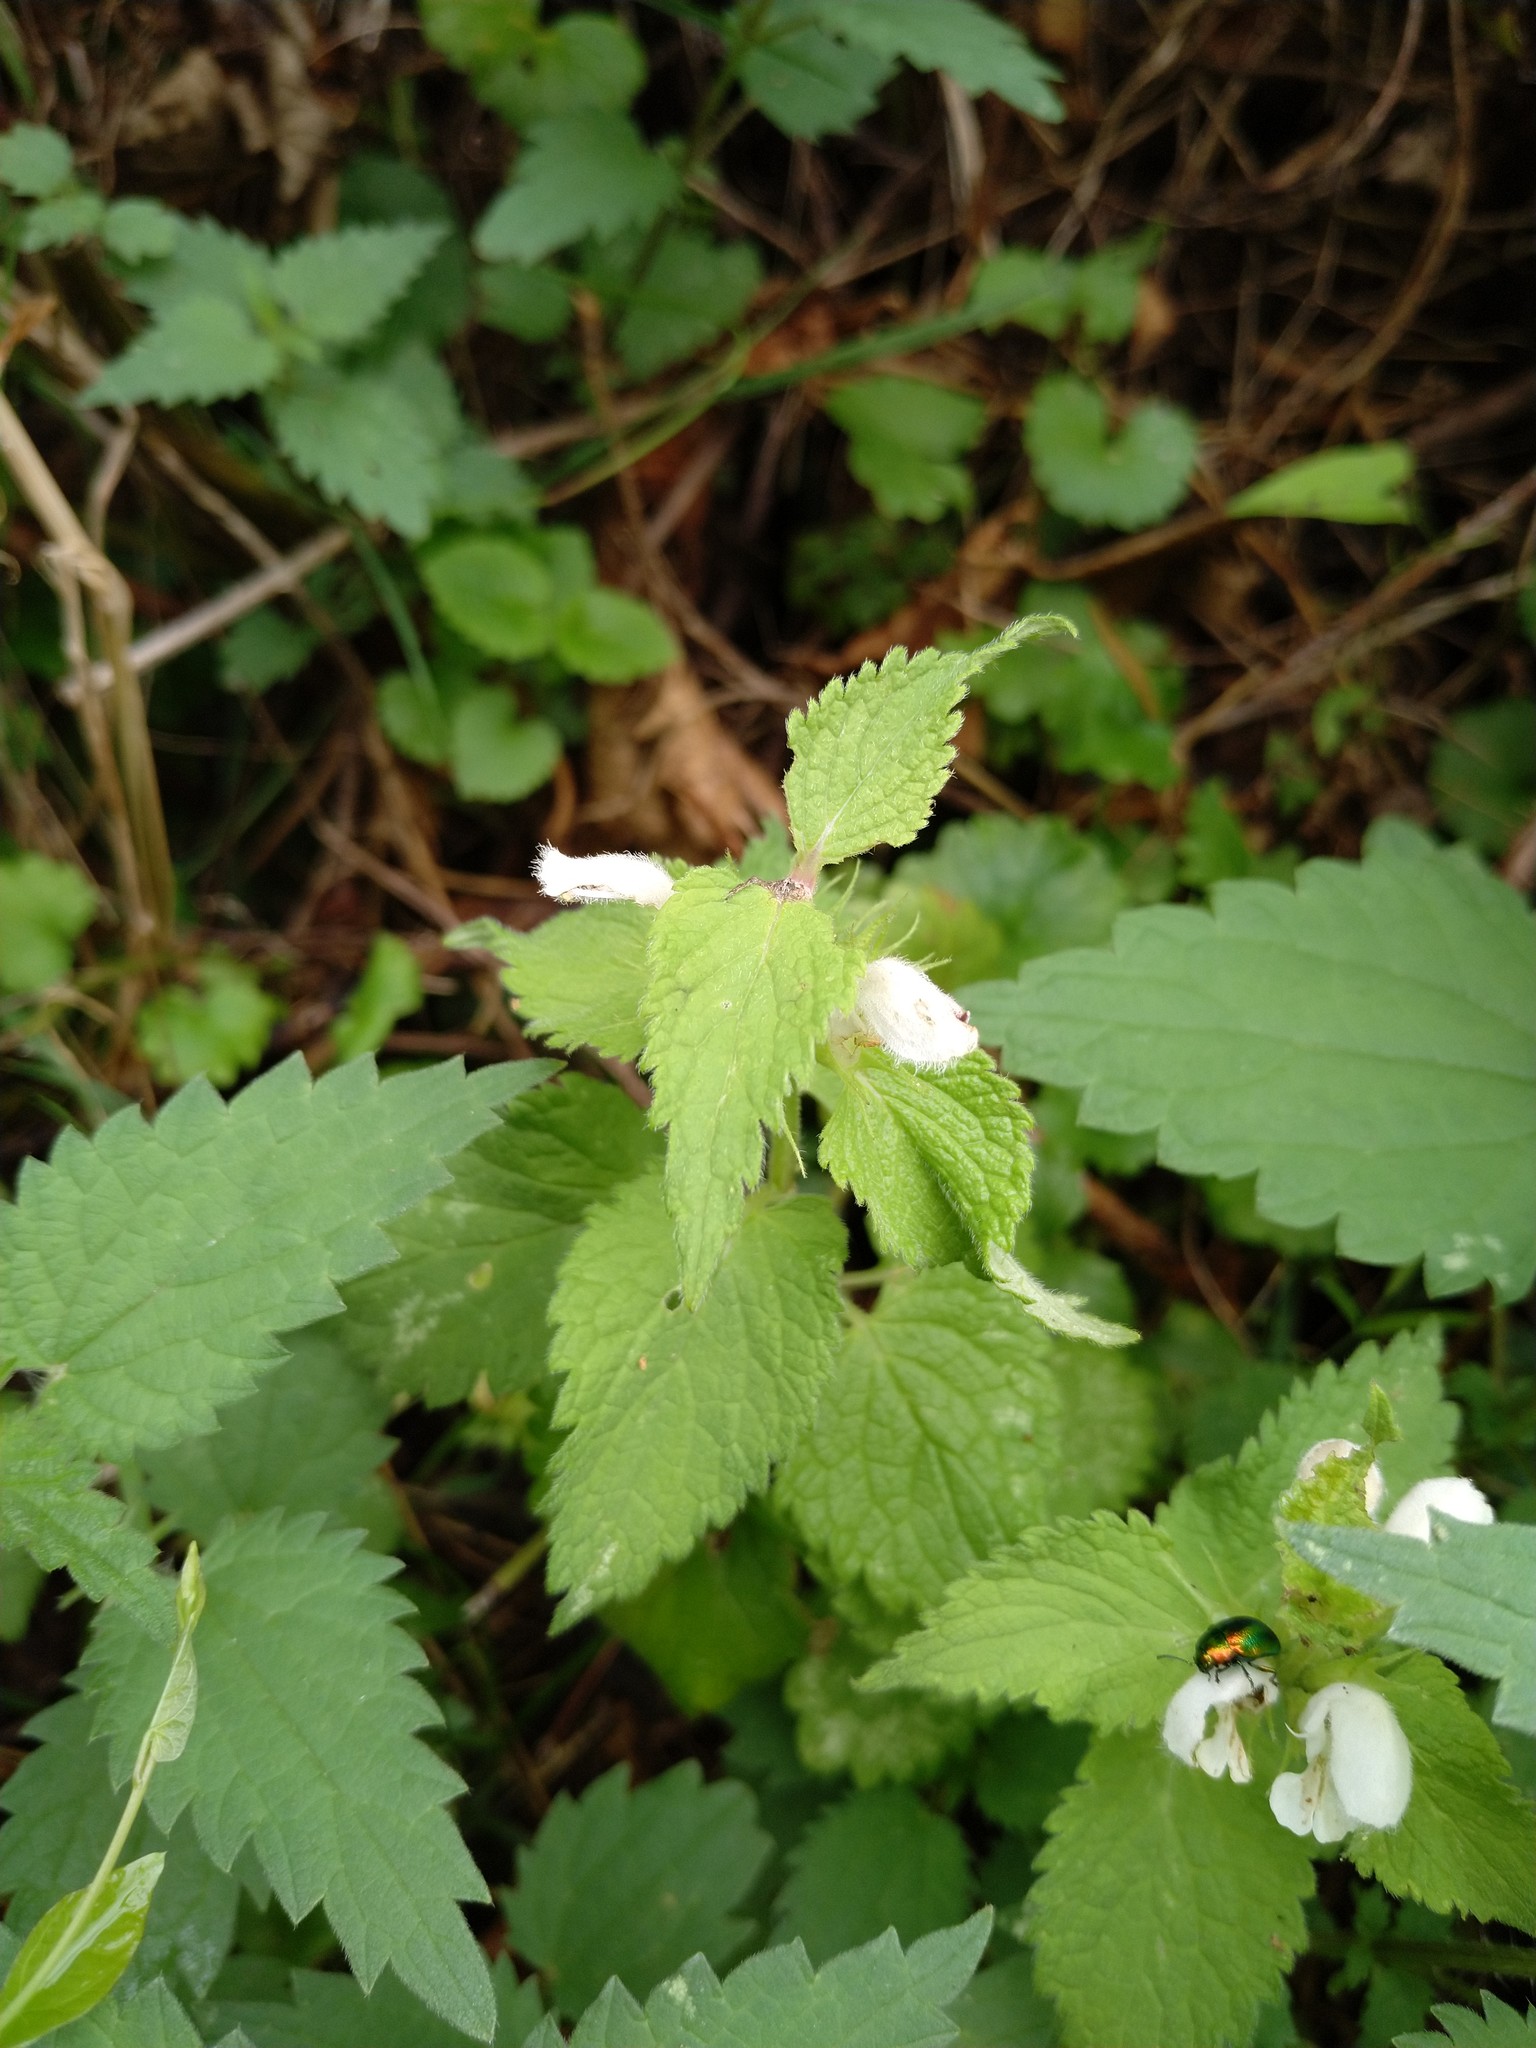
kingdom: Plantae
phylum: Tracheophyta
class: Magnoliopsida
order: Lamiales
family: Lamiaceae
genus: Lamium
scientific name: Lamium album
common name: White dead-nettle
